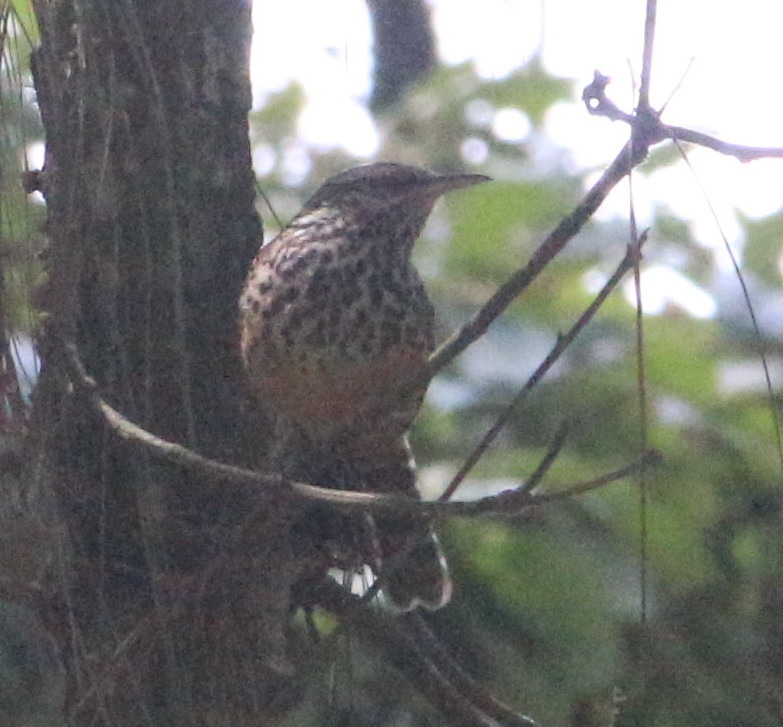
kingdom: Animalia
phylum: Chordata
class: Aves
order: Passeriformes
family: Troglodytidae
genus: Campylorhynchus
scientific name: Campylorhynchus zonatus
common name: Band-backed wren
